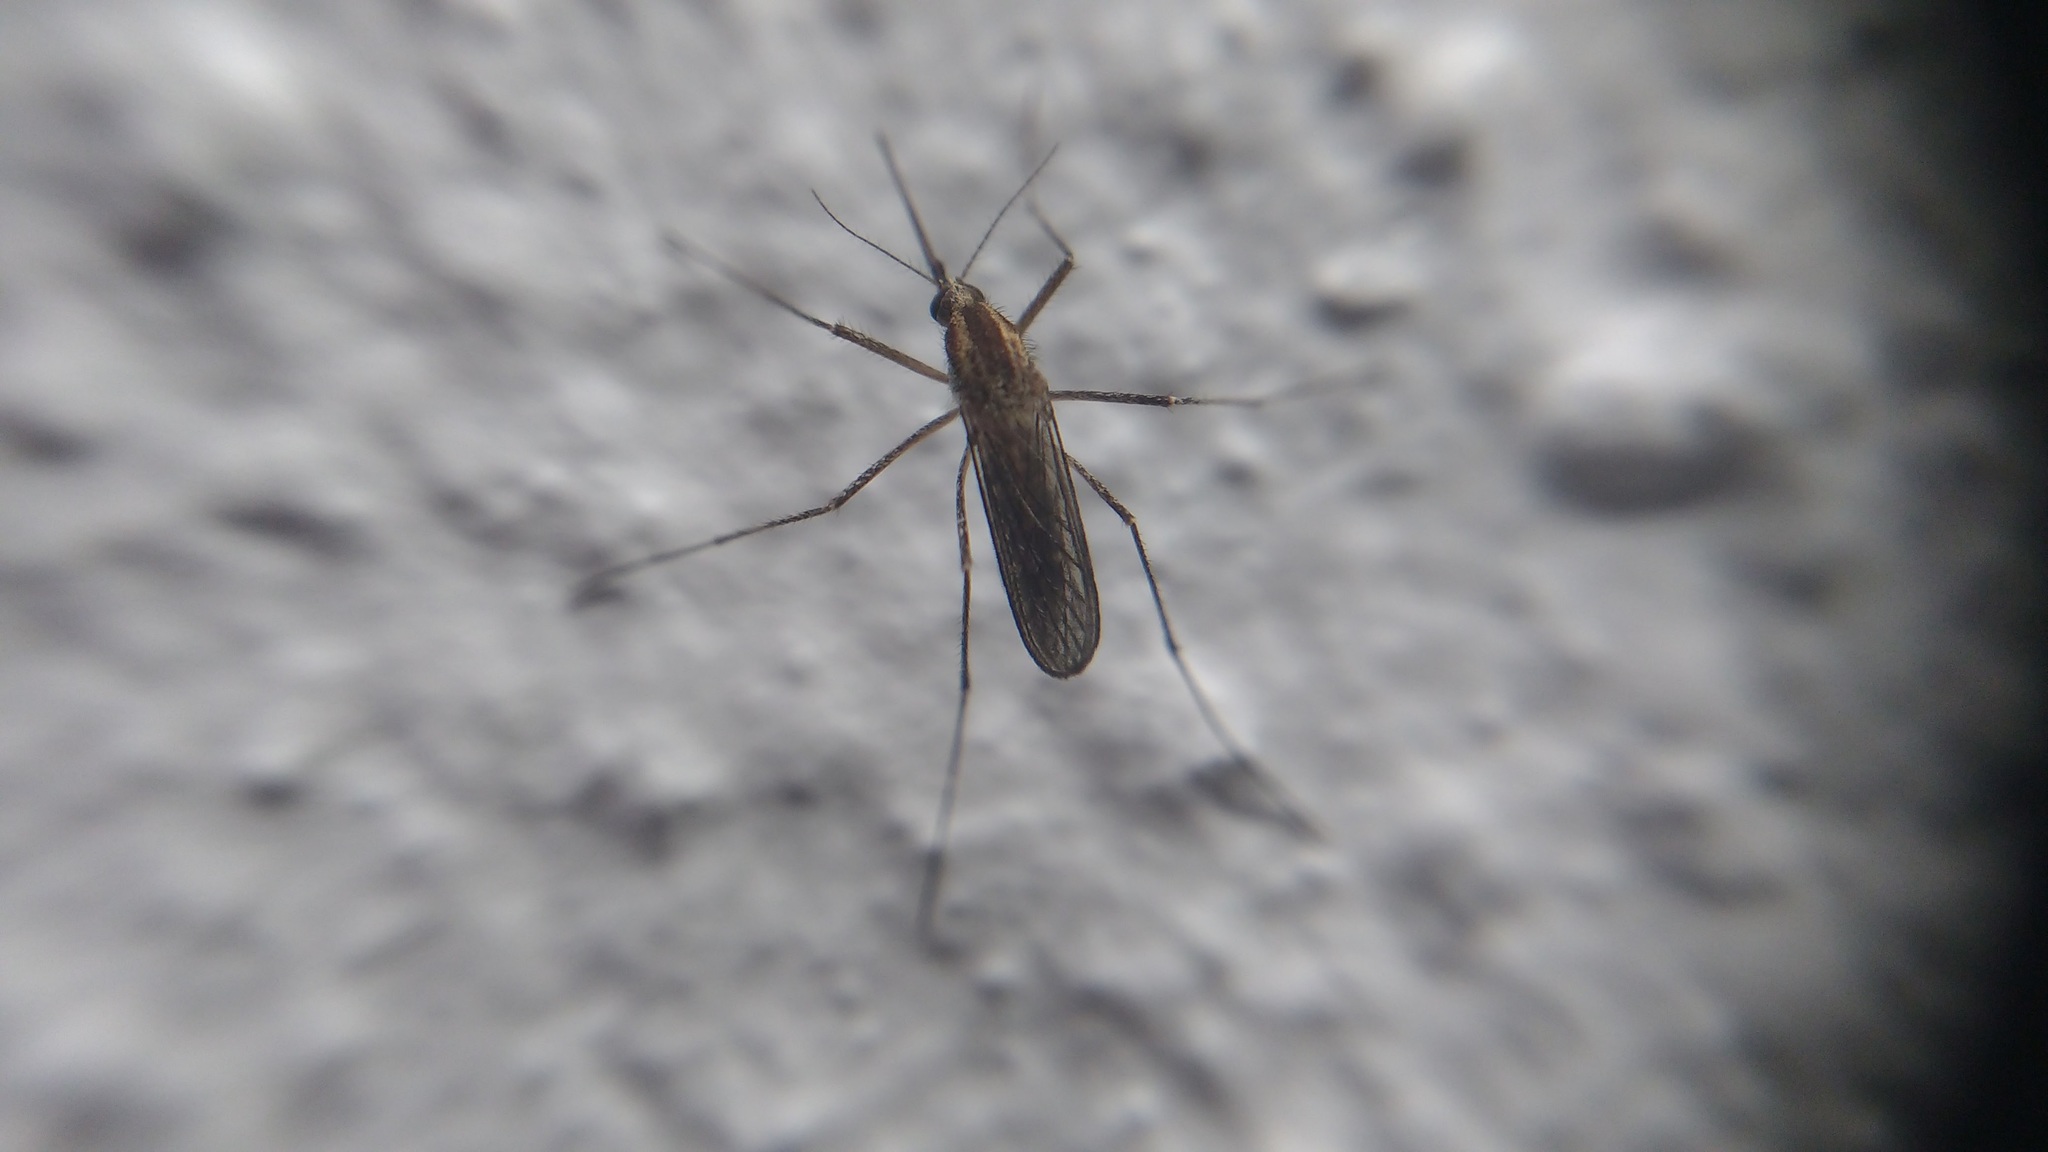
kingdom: Animalia
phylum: Arthropoda
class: Insecta
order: Diptera
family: Culicidae
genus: Aedes
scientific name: Aedes albifasciatus
